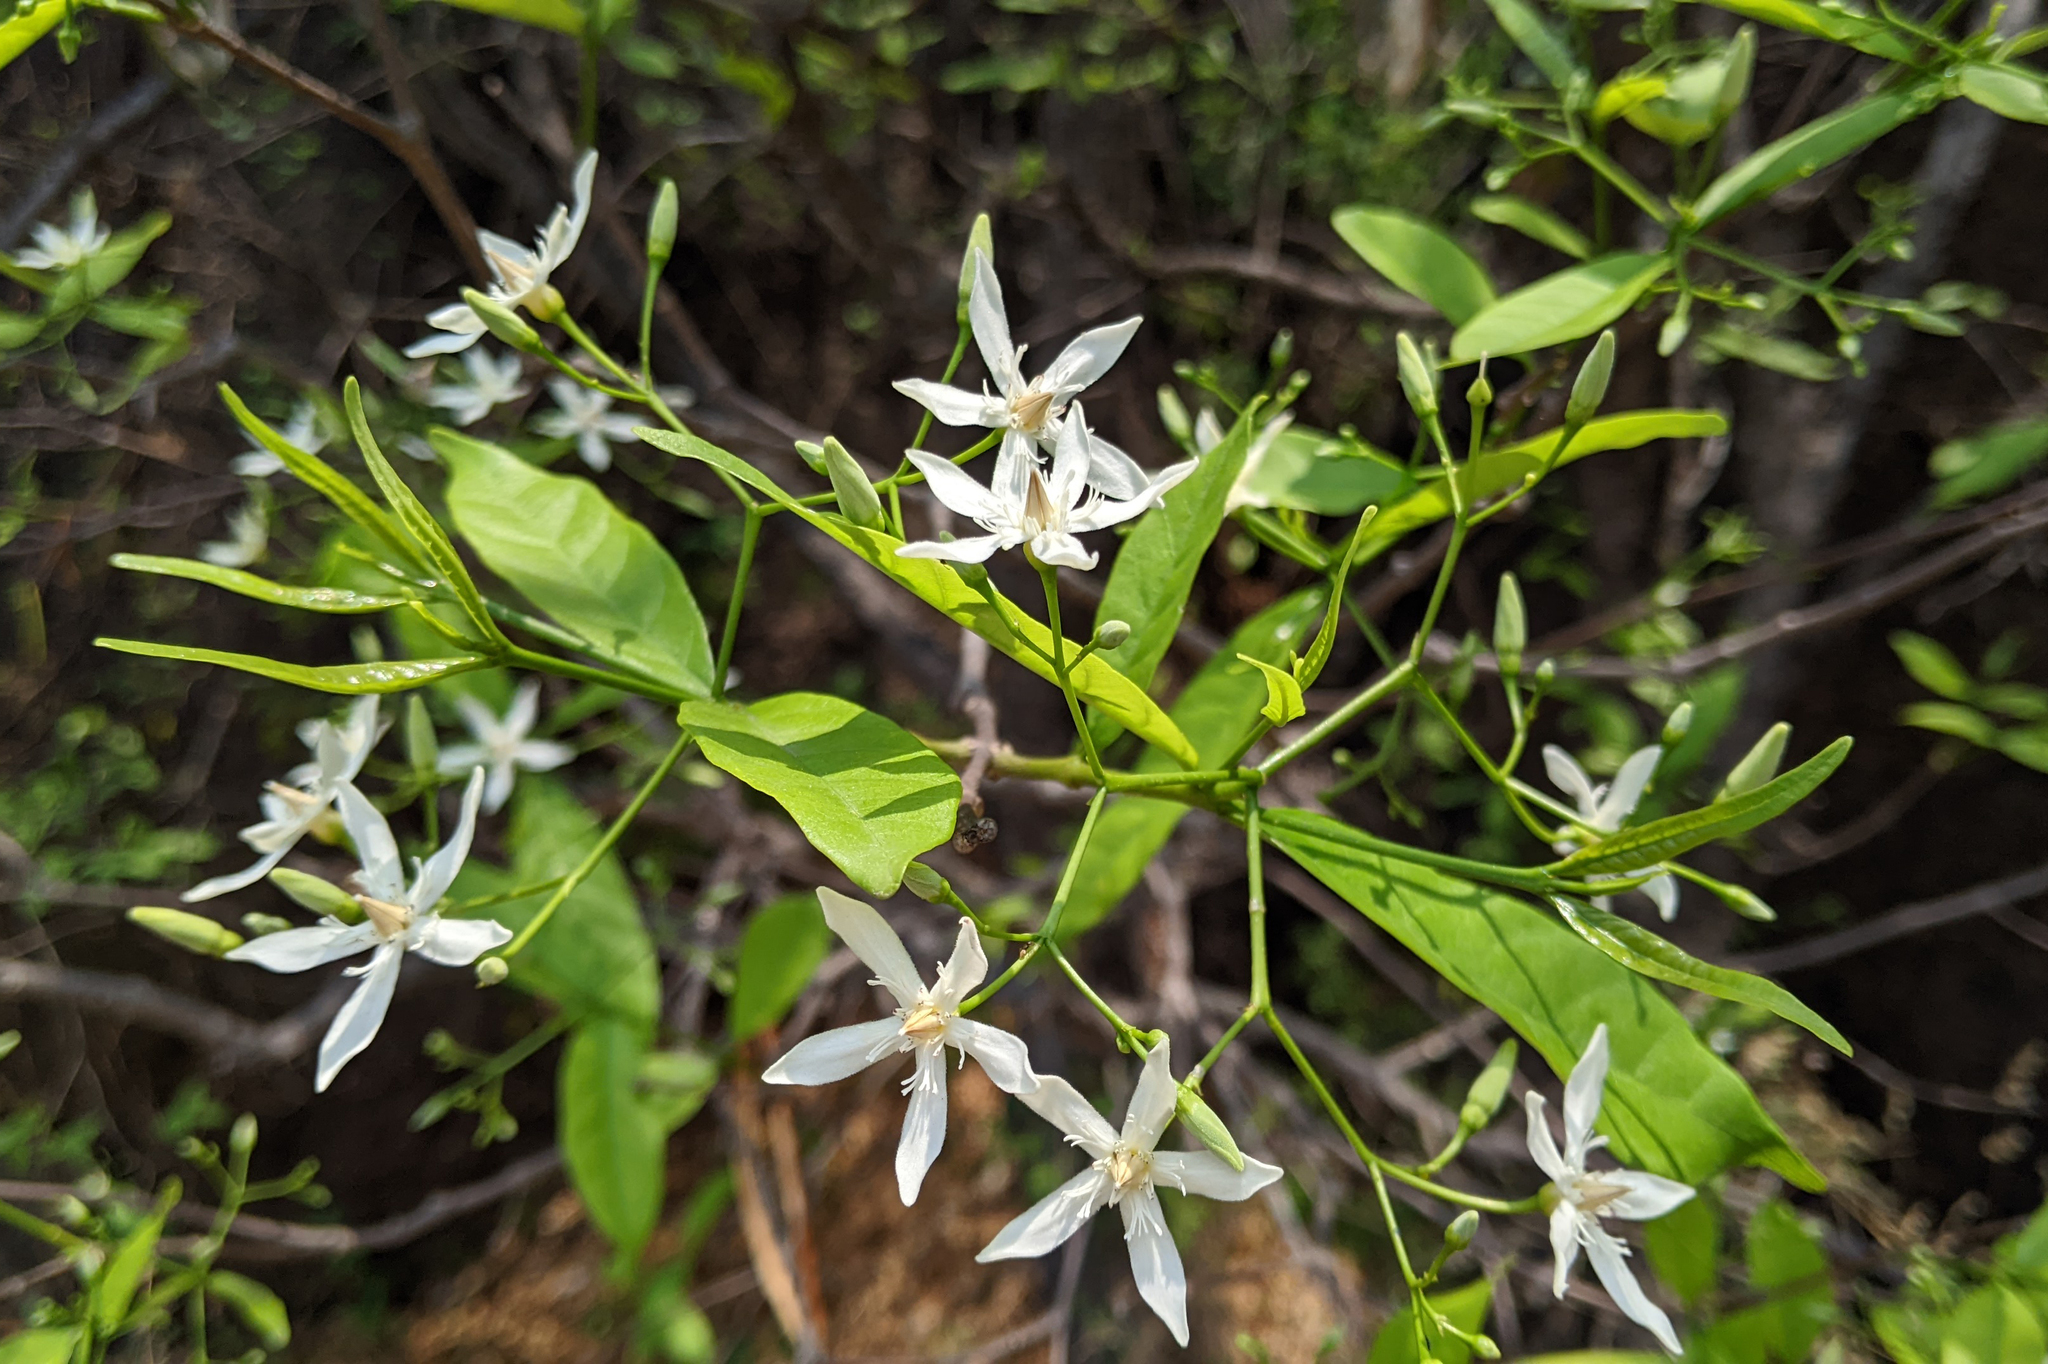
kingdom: Plantae
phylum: Tracheophyta
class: Magnoliopsida
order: Gentianales
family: Apocynaceae
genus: Wrightia
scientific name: Wrightia tinctoria
